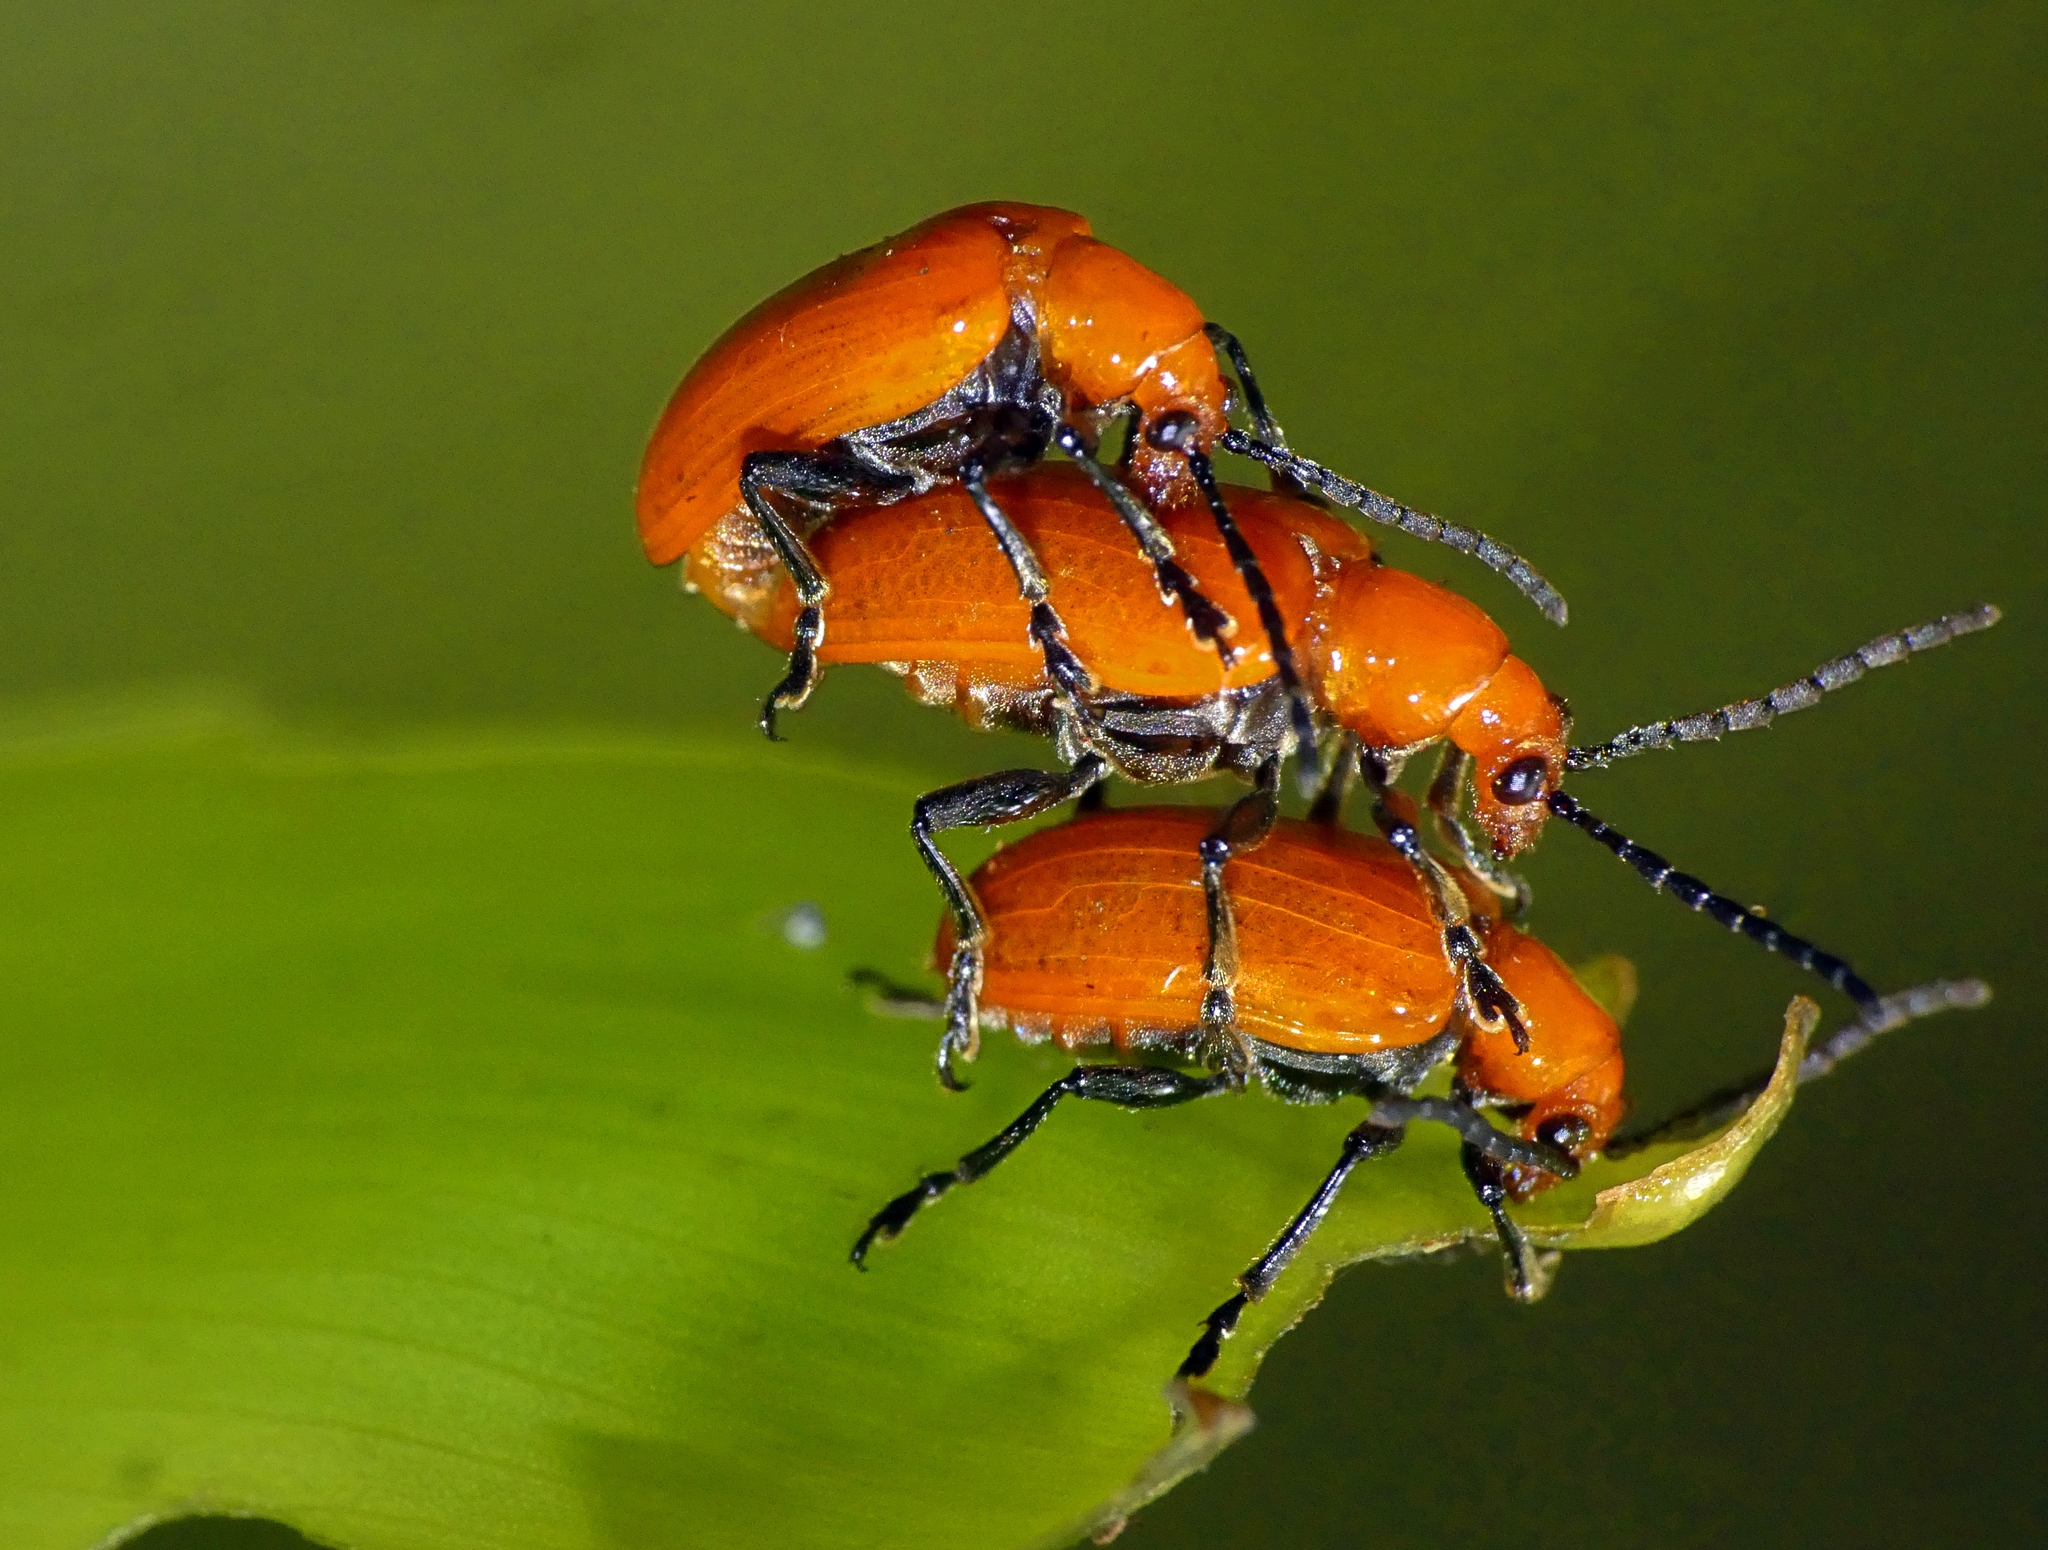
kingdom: Animalia
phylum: Arthropoda
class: Insecta
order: Coleoptera
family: Chrysomelidae
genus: Lilioceris
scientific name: Lilioceris
